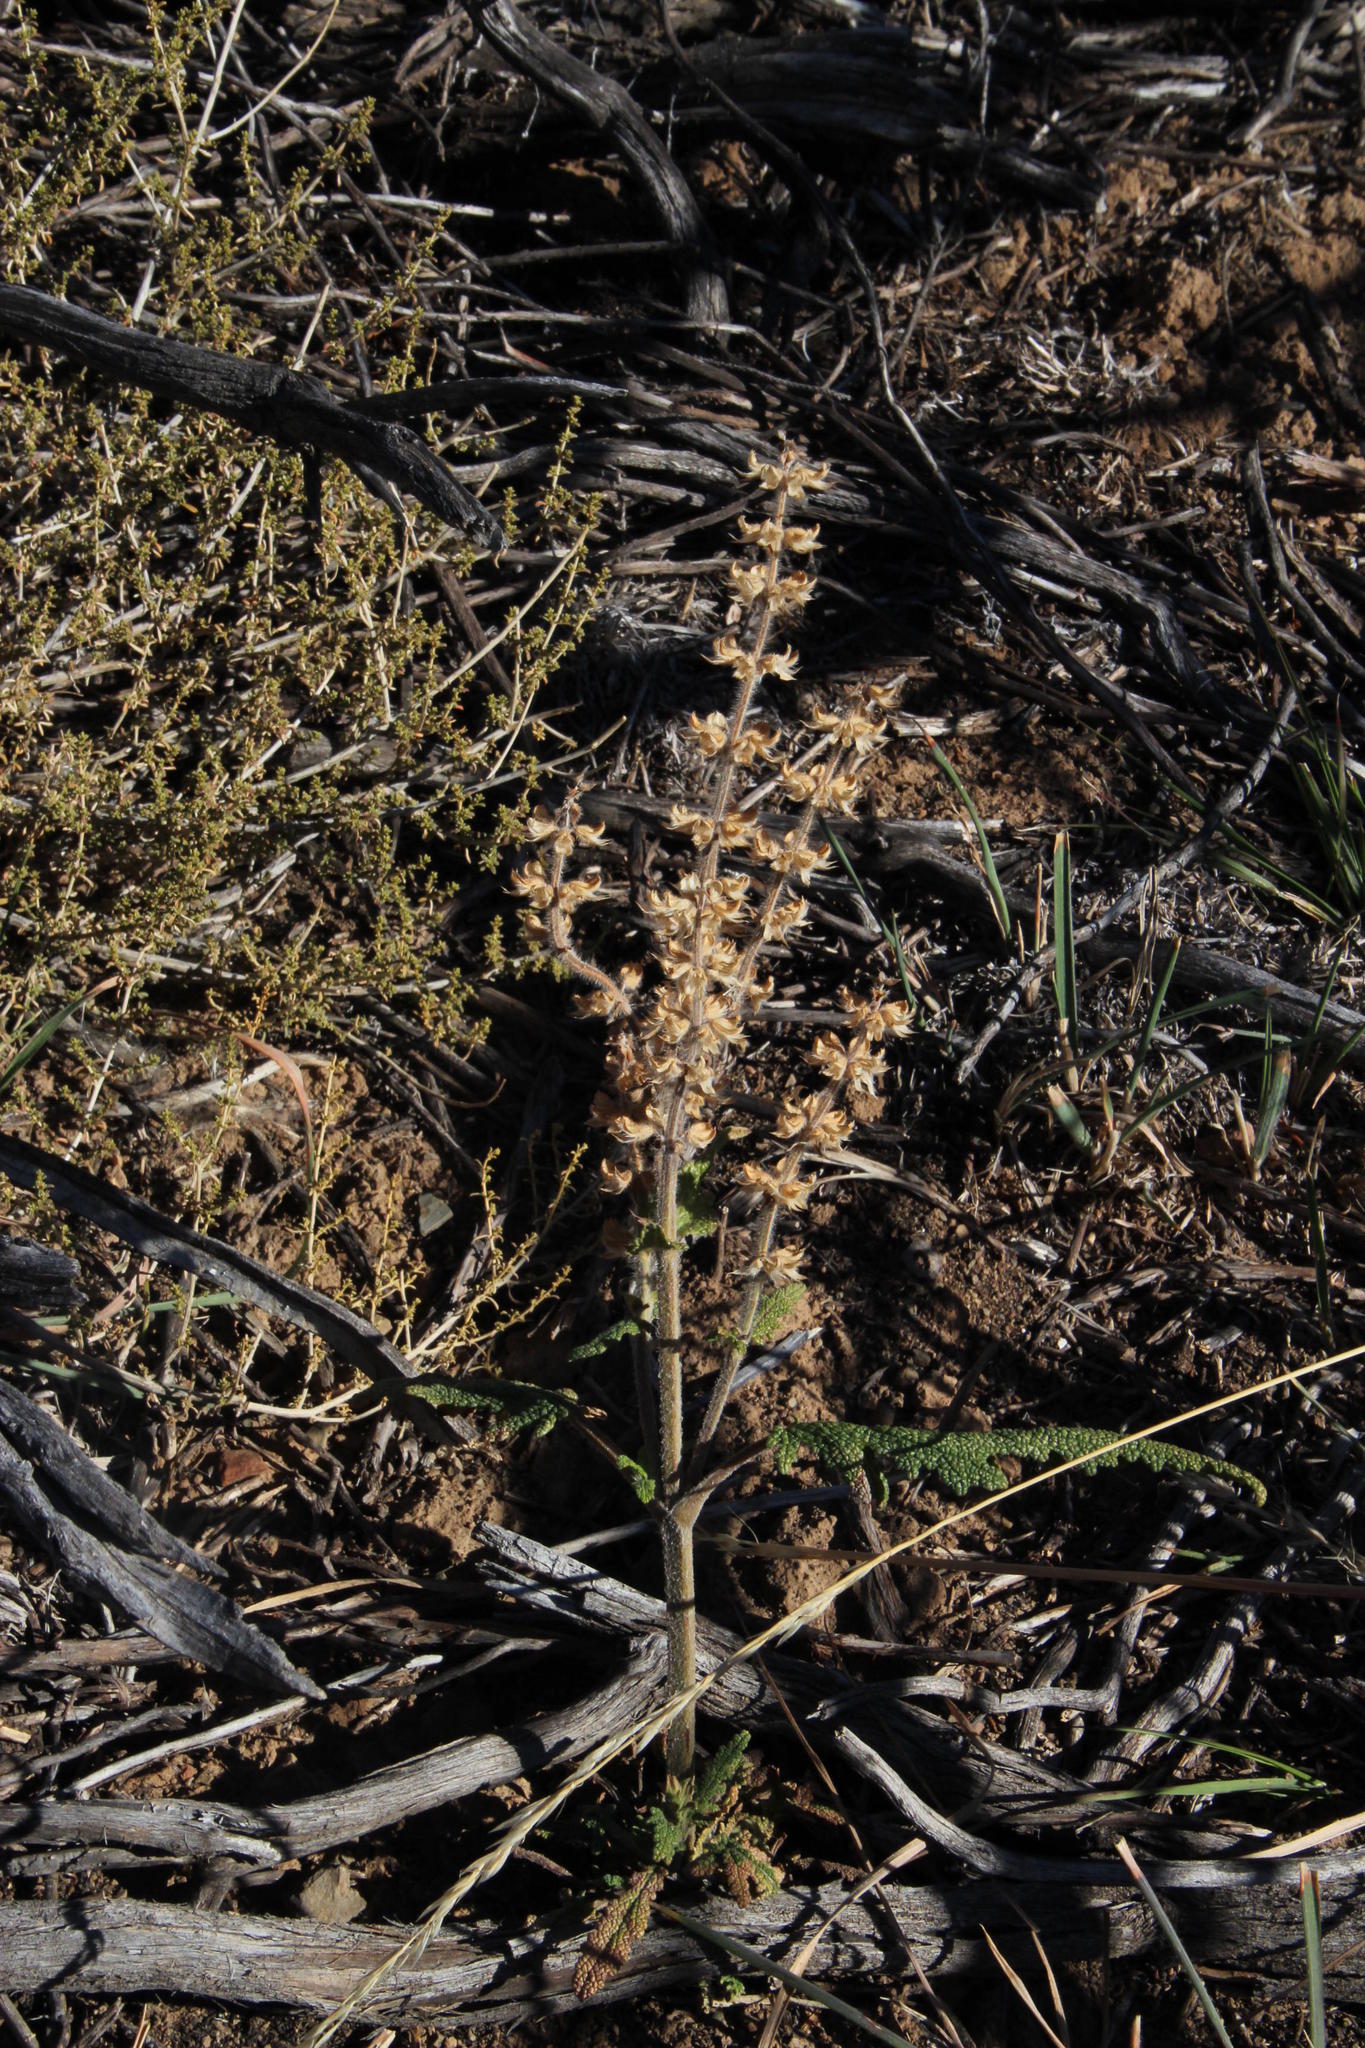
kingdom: Plantae
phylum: Tracheophyta
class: Magnoliopsida
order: Lamiales
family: Lamiaceae
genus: Salvia
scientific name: Salvia verbenaca
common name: Wild clary
